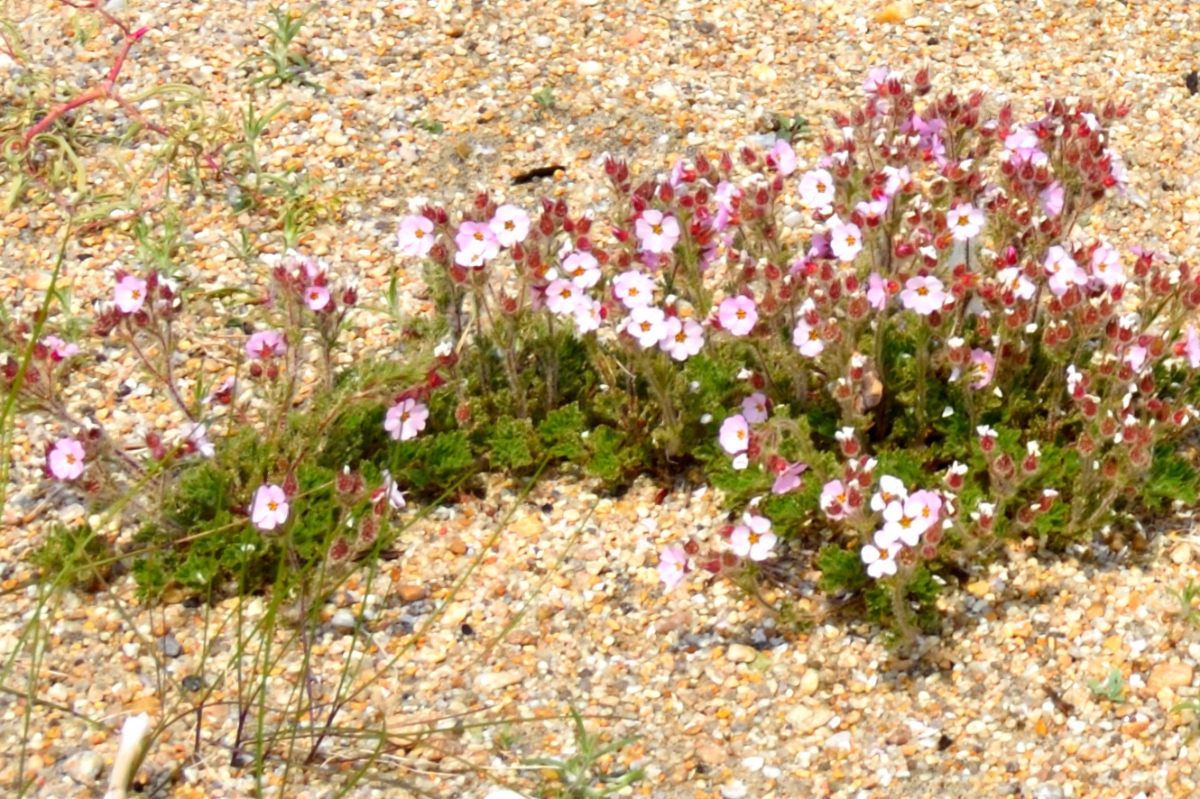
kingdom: Plantae
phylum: Tracheophyta
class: Magnoliopsida
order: Rosales
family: Rosaceae
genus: Chamaerhodos
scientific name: Chamaerhodos grandiflora
